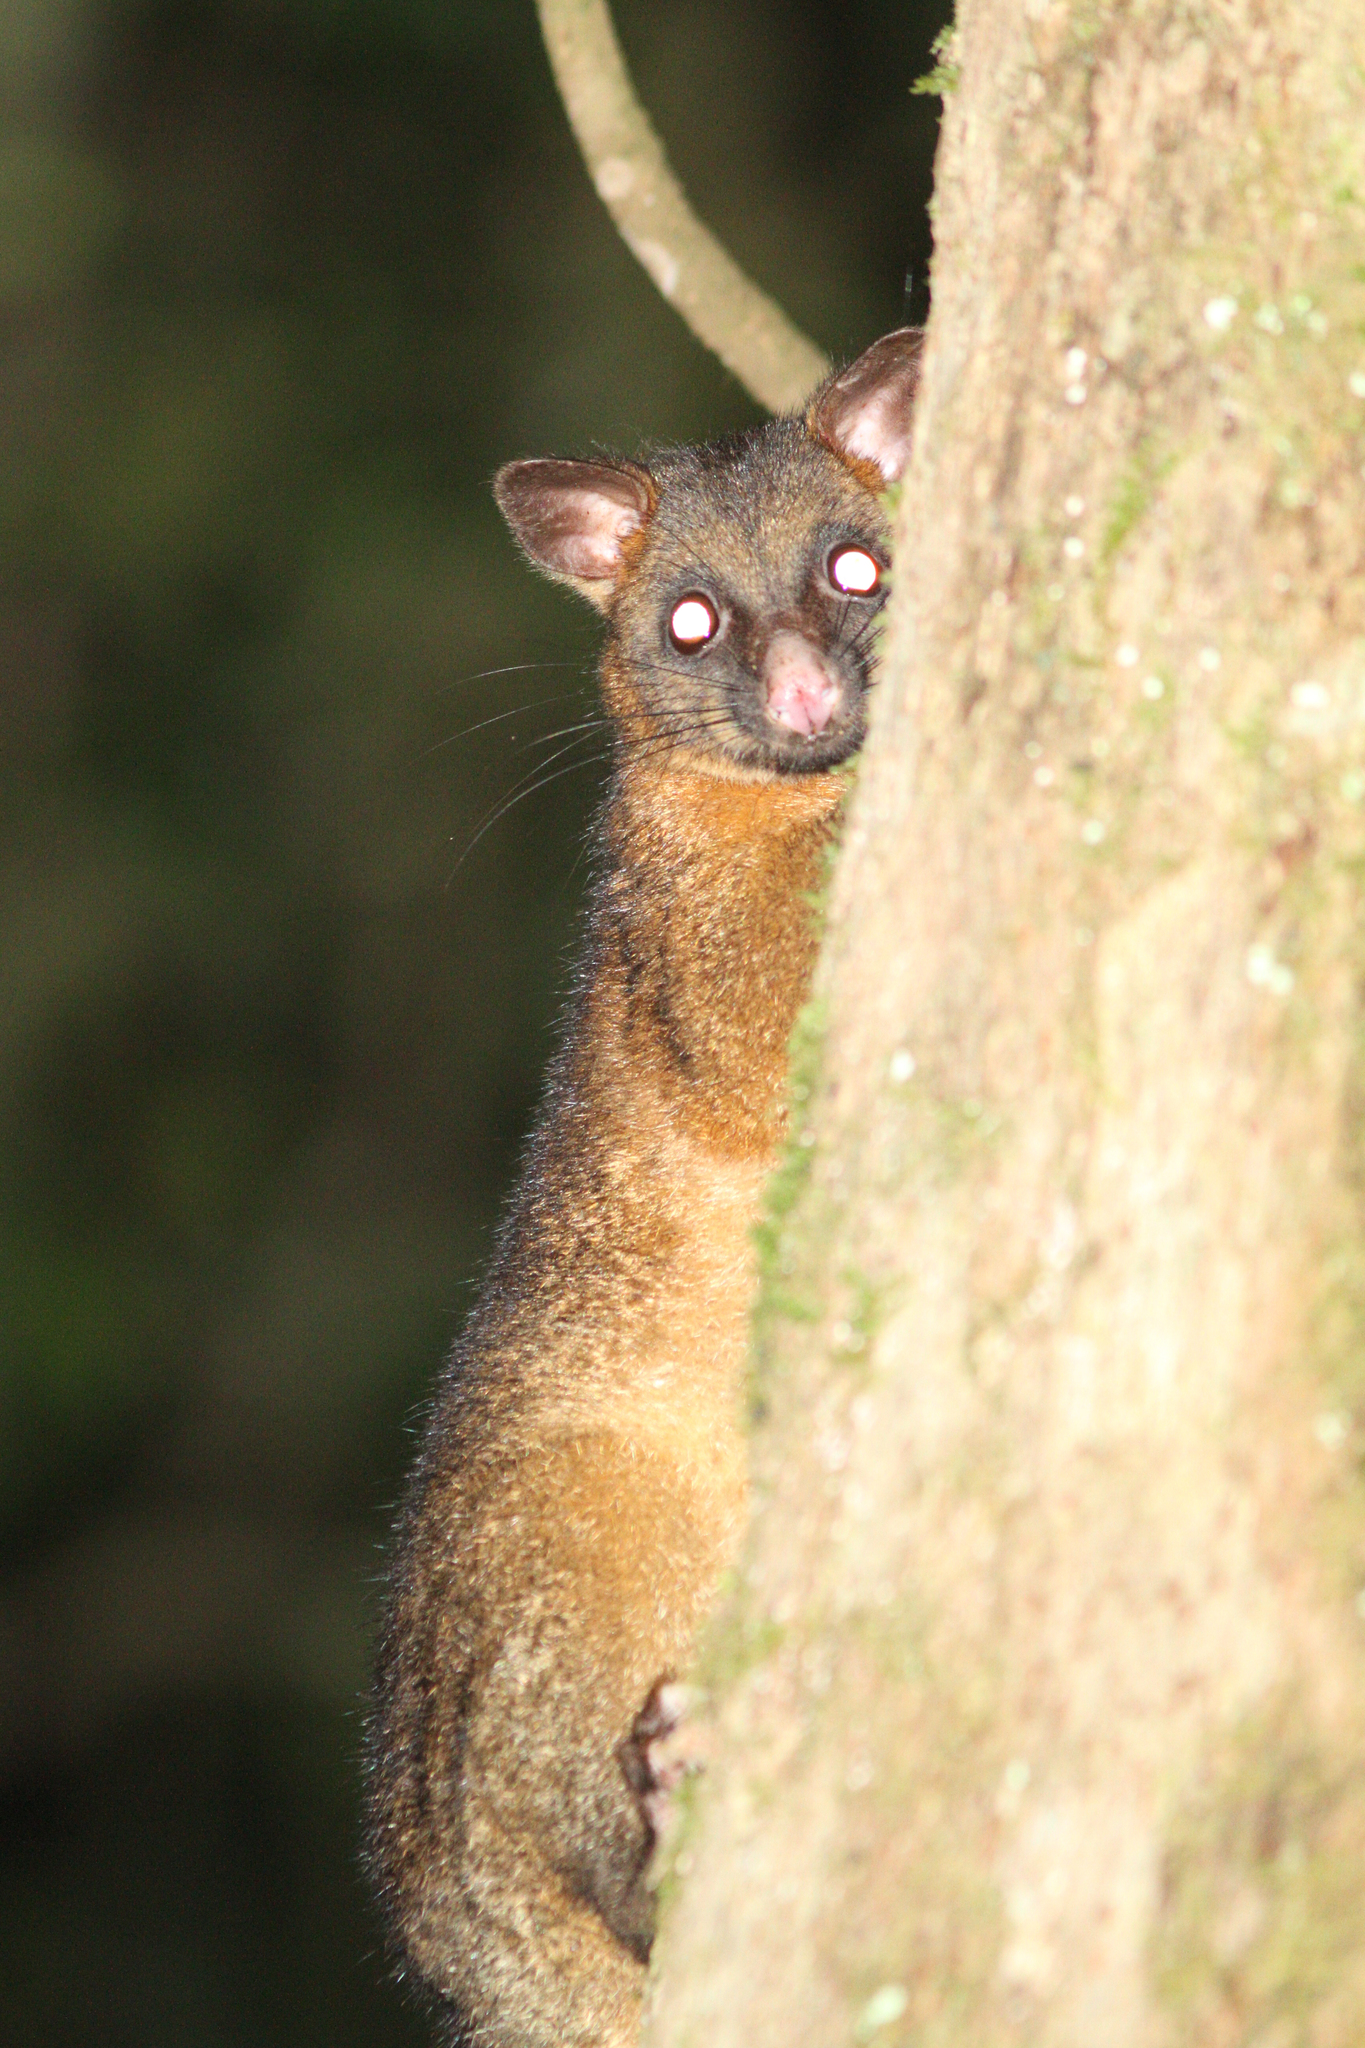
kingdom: Animalia
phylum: Chordata
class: Mammalia
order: Diprotodontia
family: Phalangeridae
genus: Trichosurus
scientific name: Trichosurus vulpecula
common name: Common brushtail
